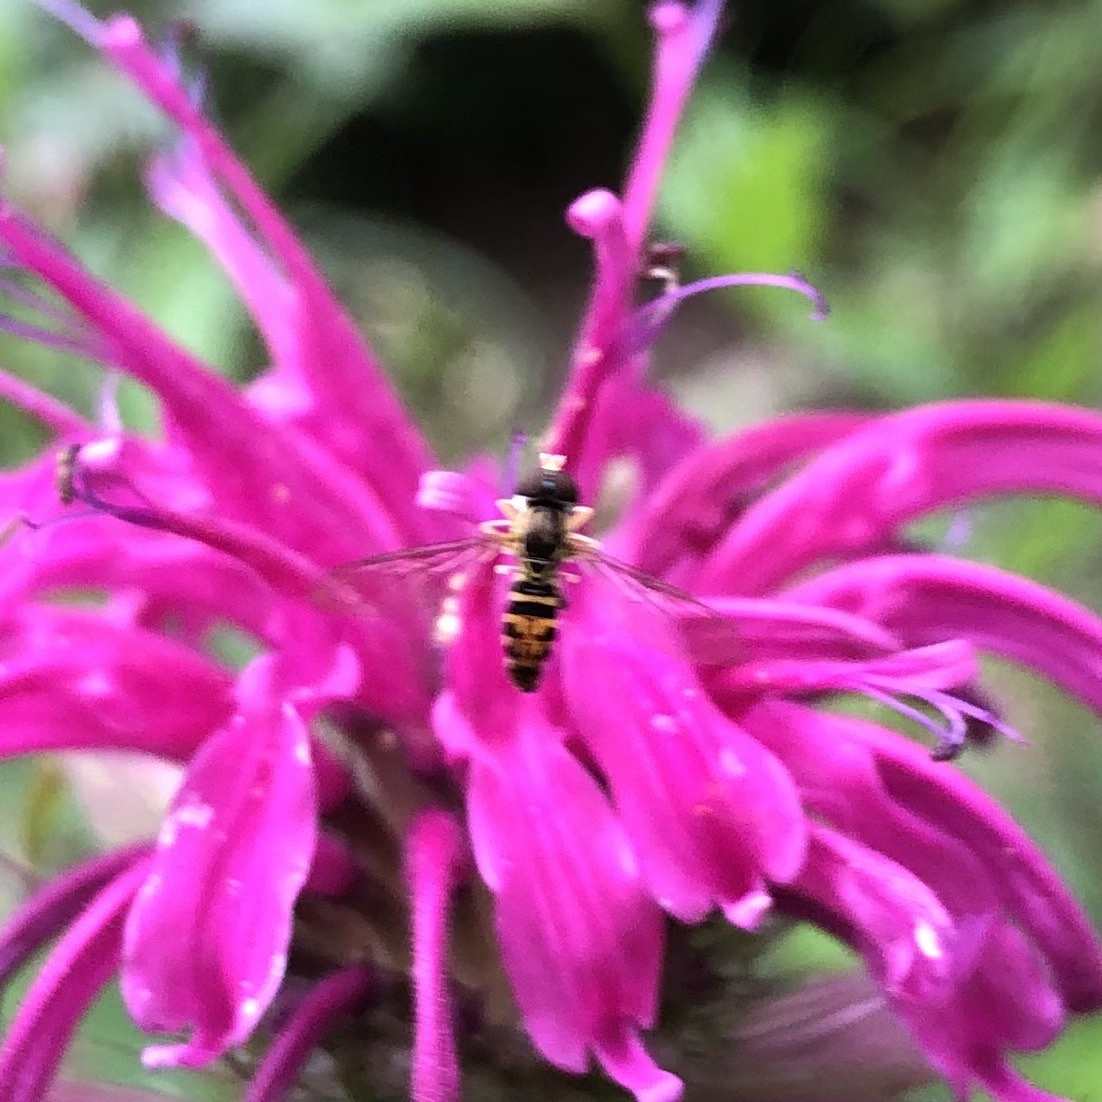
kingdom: Animalia
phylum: Arthropoda
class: Insecta
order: Diptera
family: Syrphidae
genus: Toxomerus
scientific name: Toxomerus geminatus
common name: Eastern calligrapher
